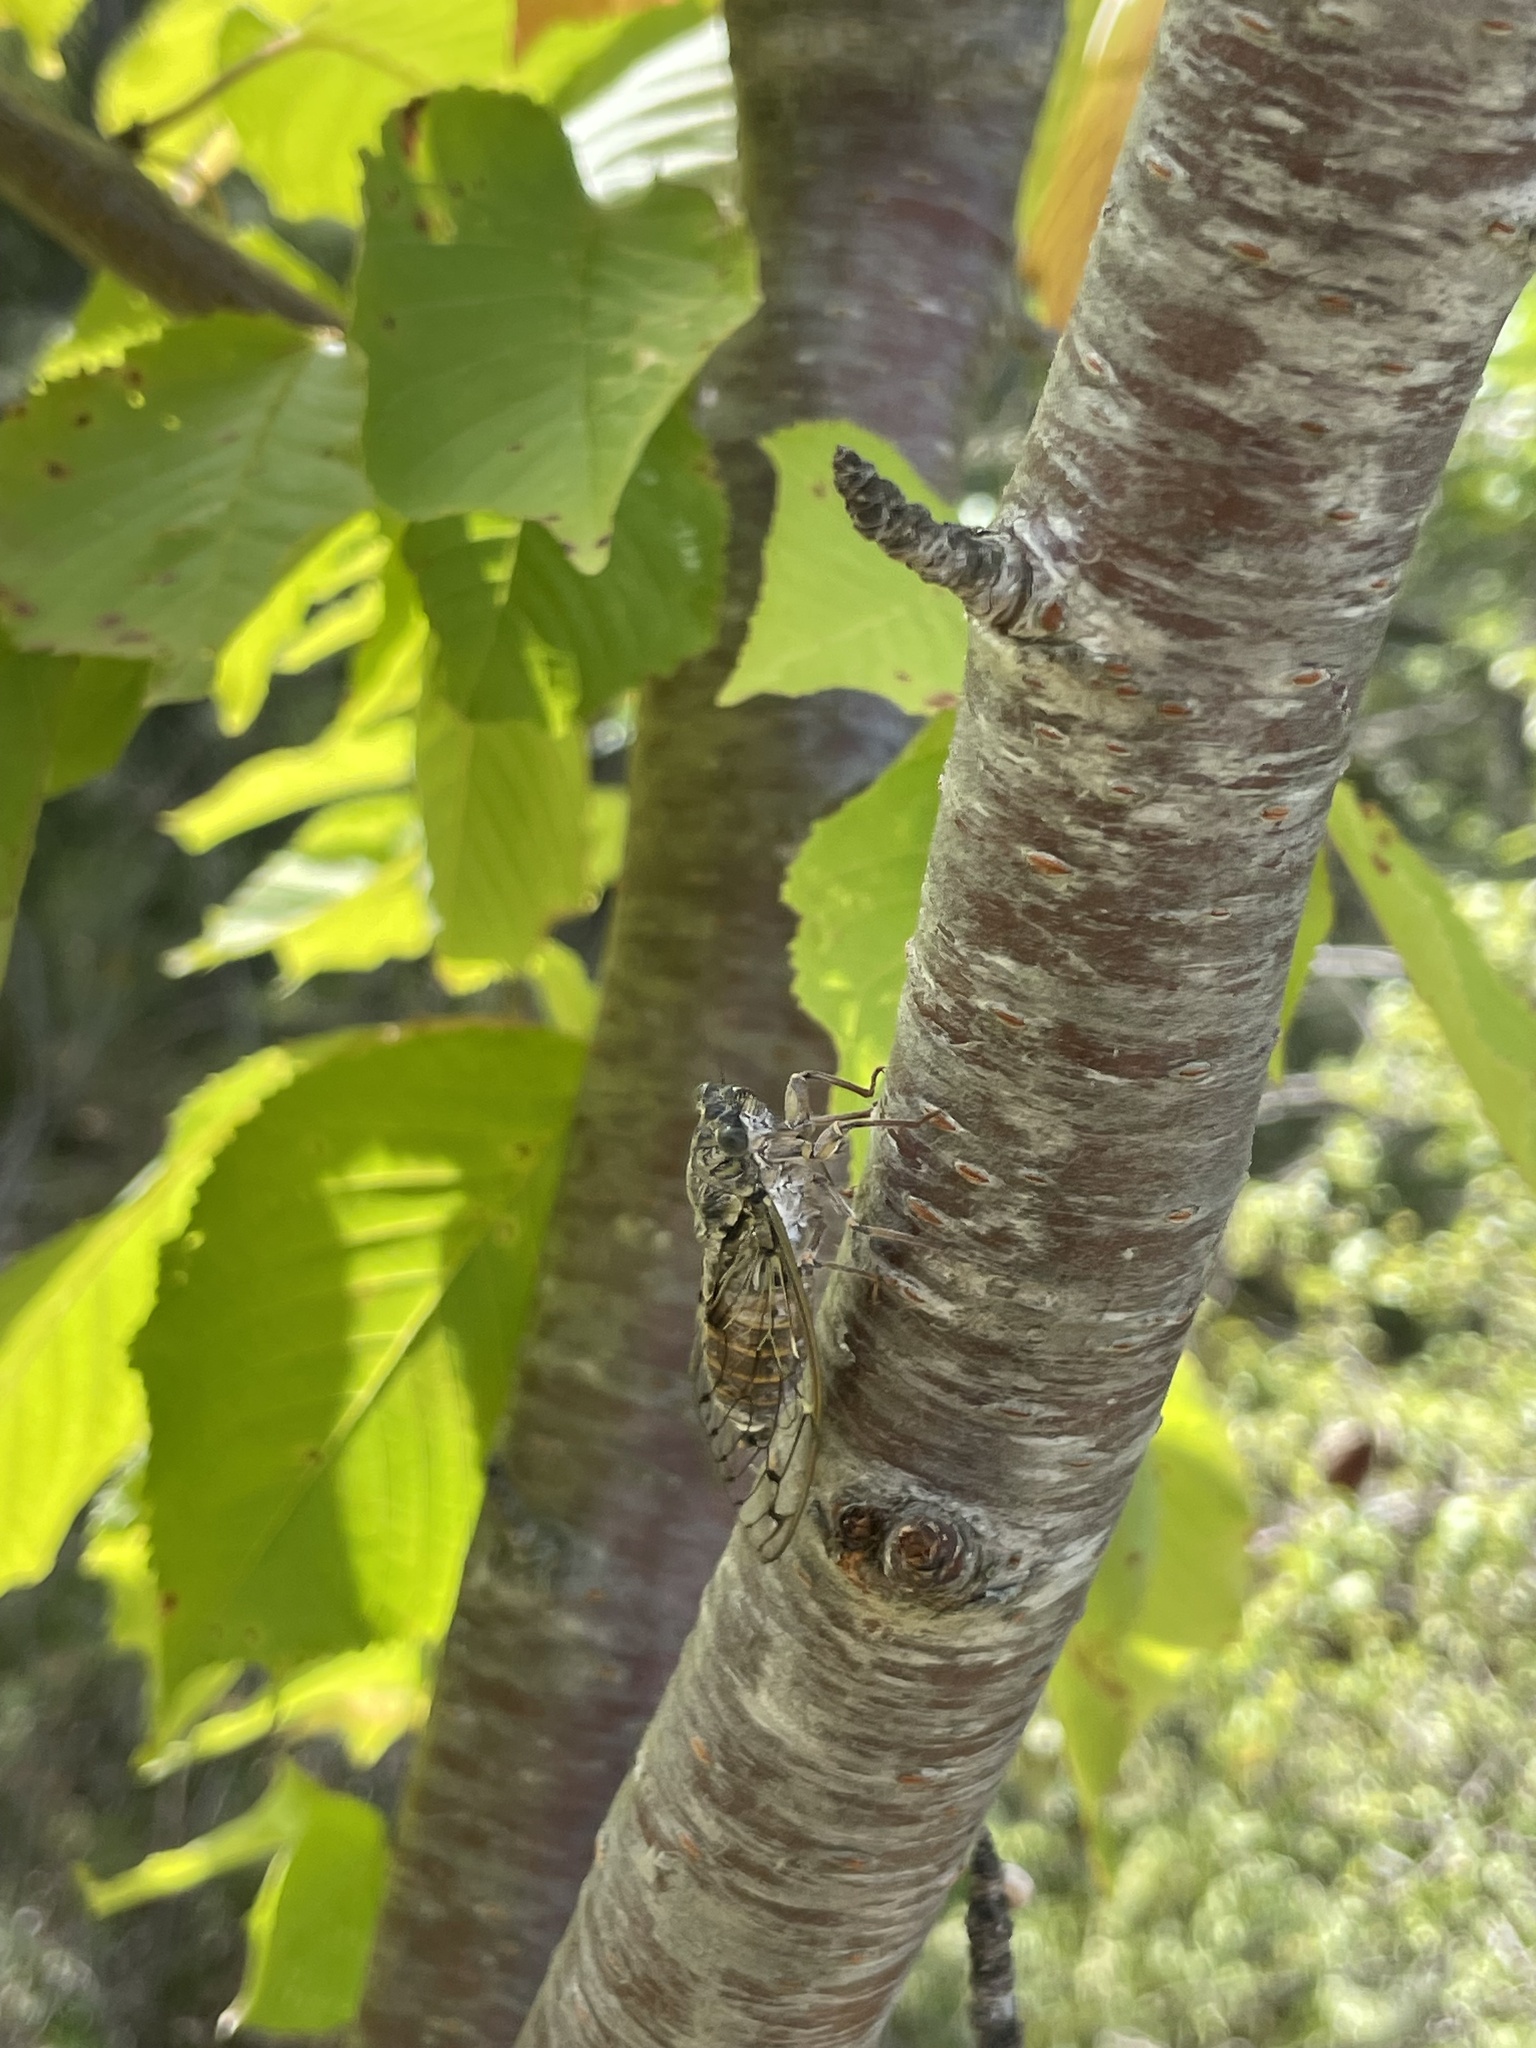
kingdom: Animalia
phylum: Arthropoda
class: Insecta
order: Hemiptera
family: Cicadidae
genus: Cicada
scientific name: Cicada orni
